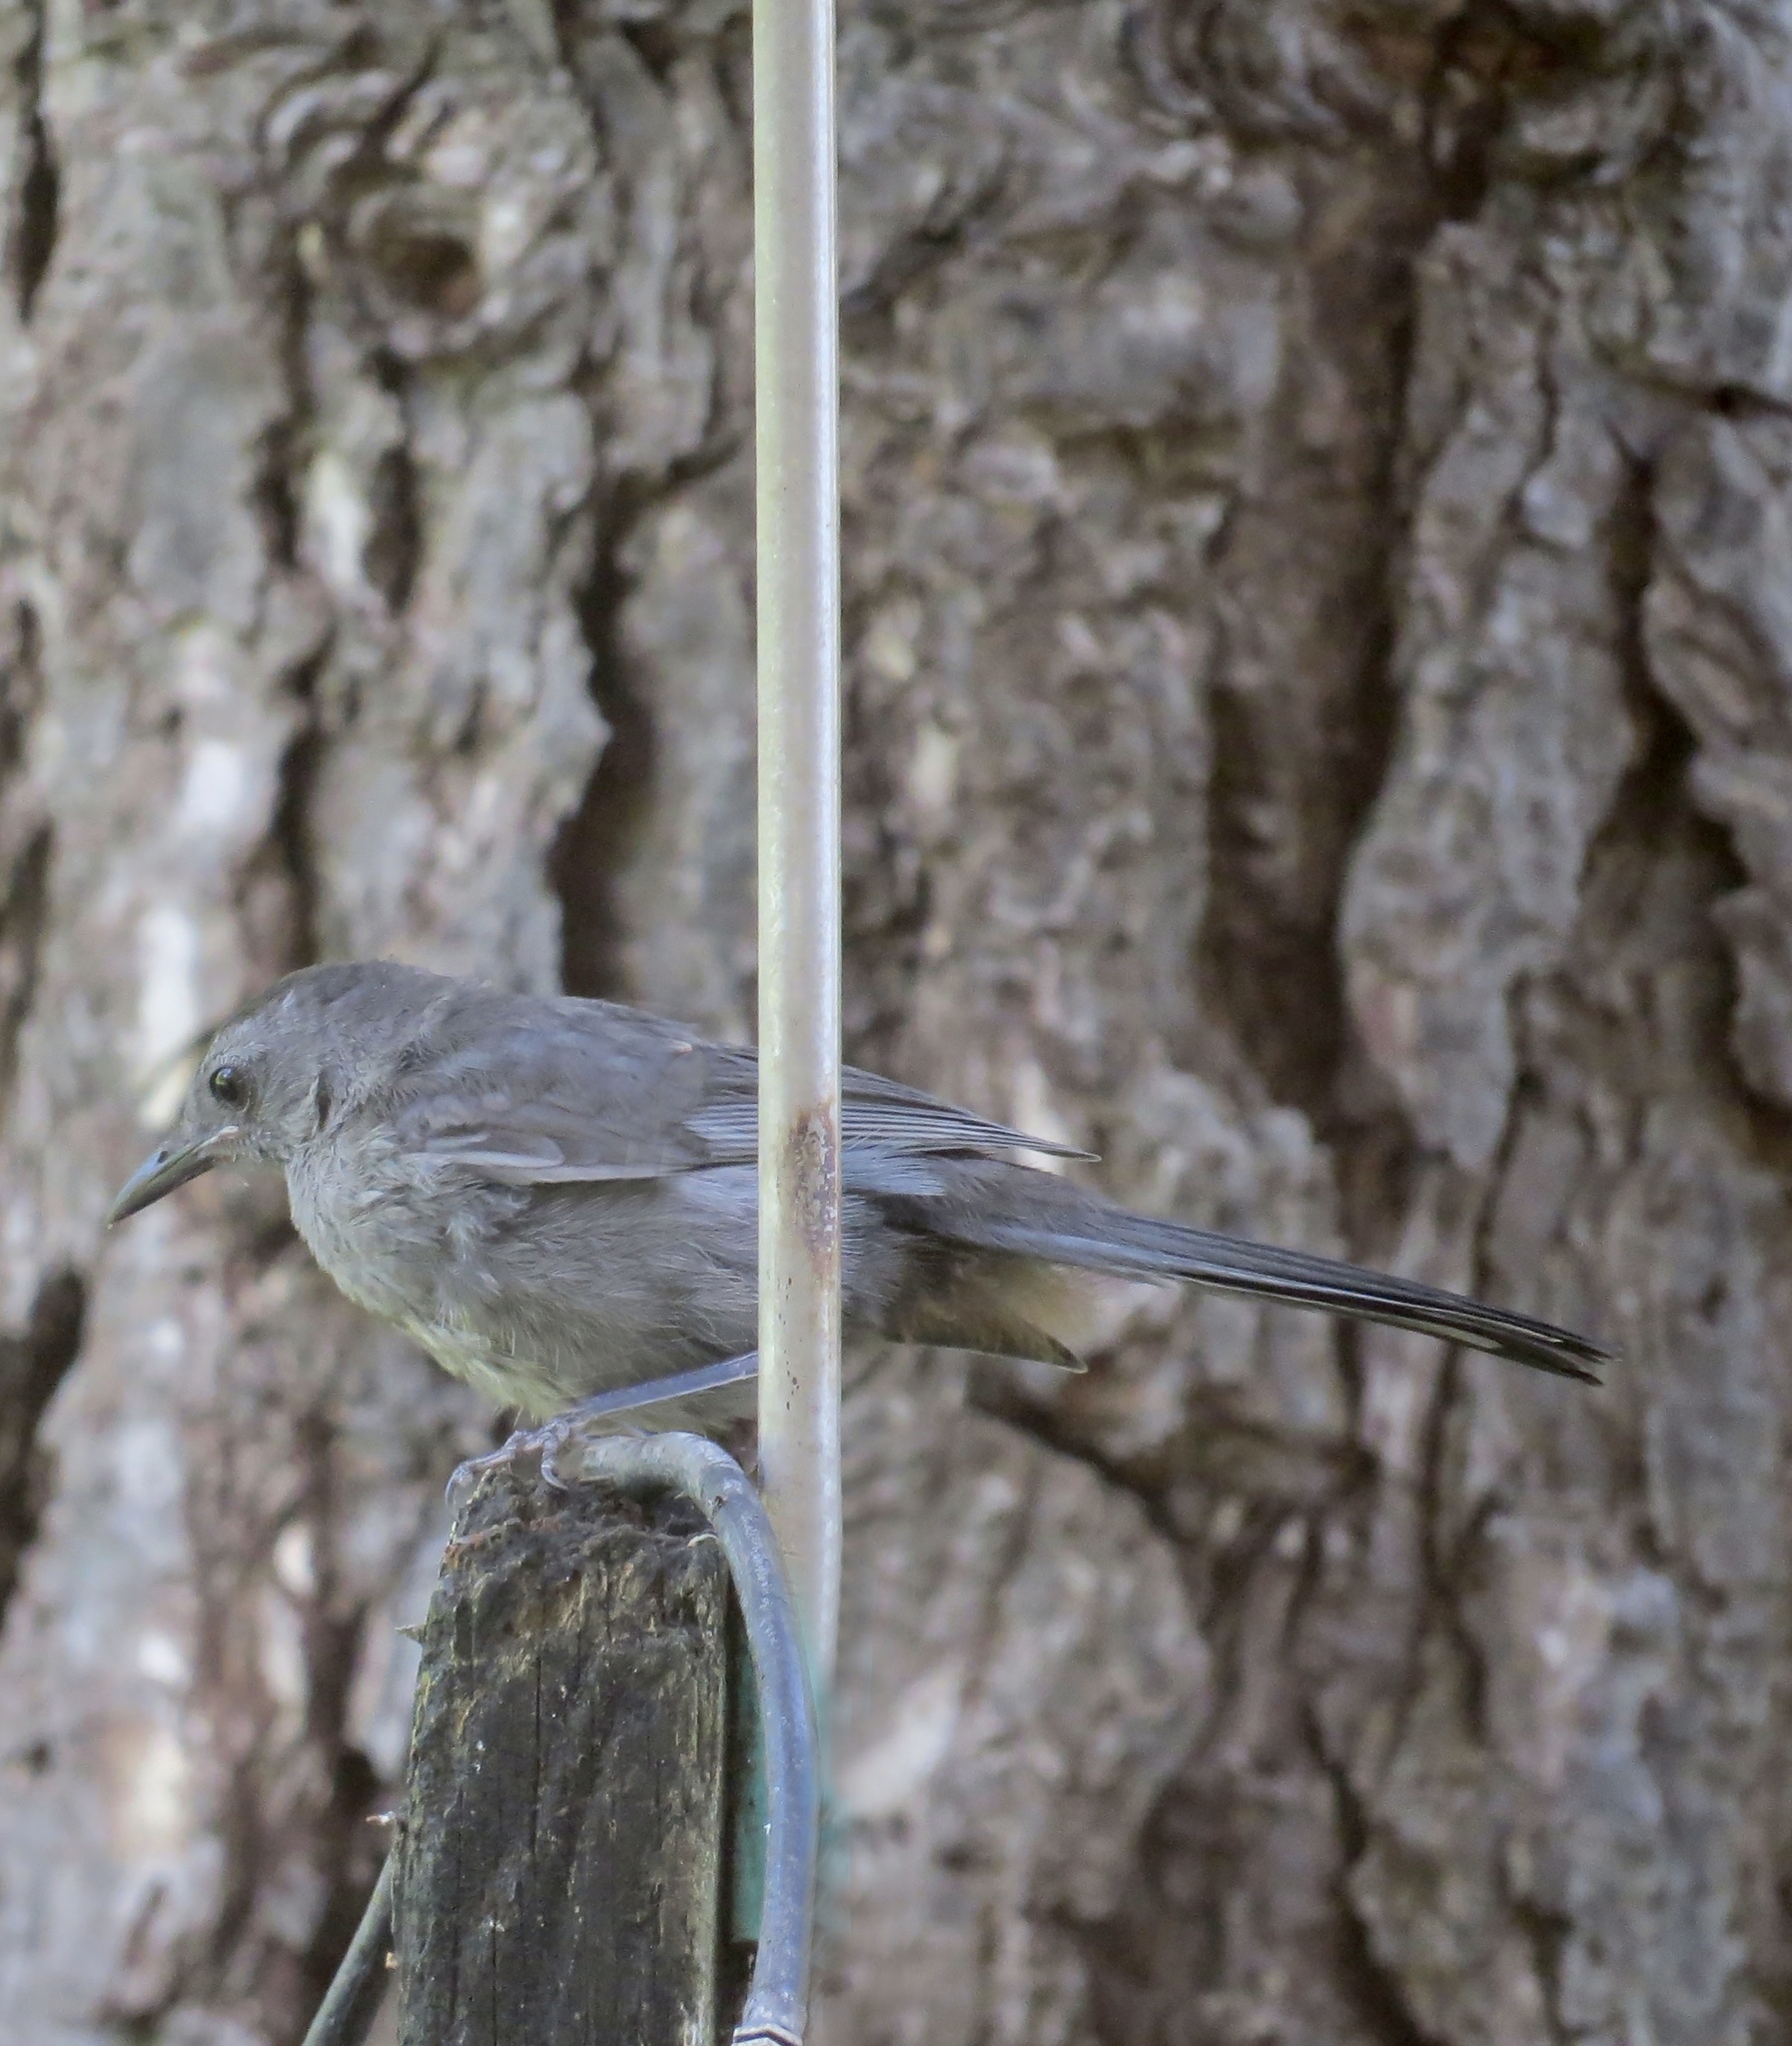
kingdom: Animalia
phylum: Chordata
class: Aves
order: Passeriformes
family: Mimidae
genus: Dumetella
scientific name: Dumetella carolinensis
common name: Gray catbird
